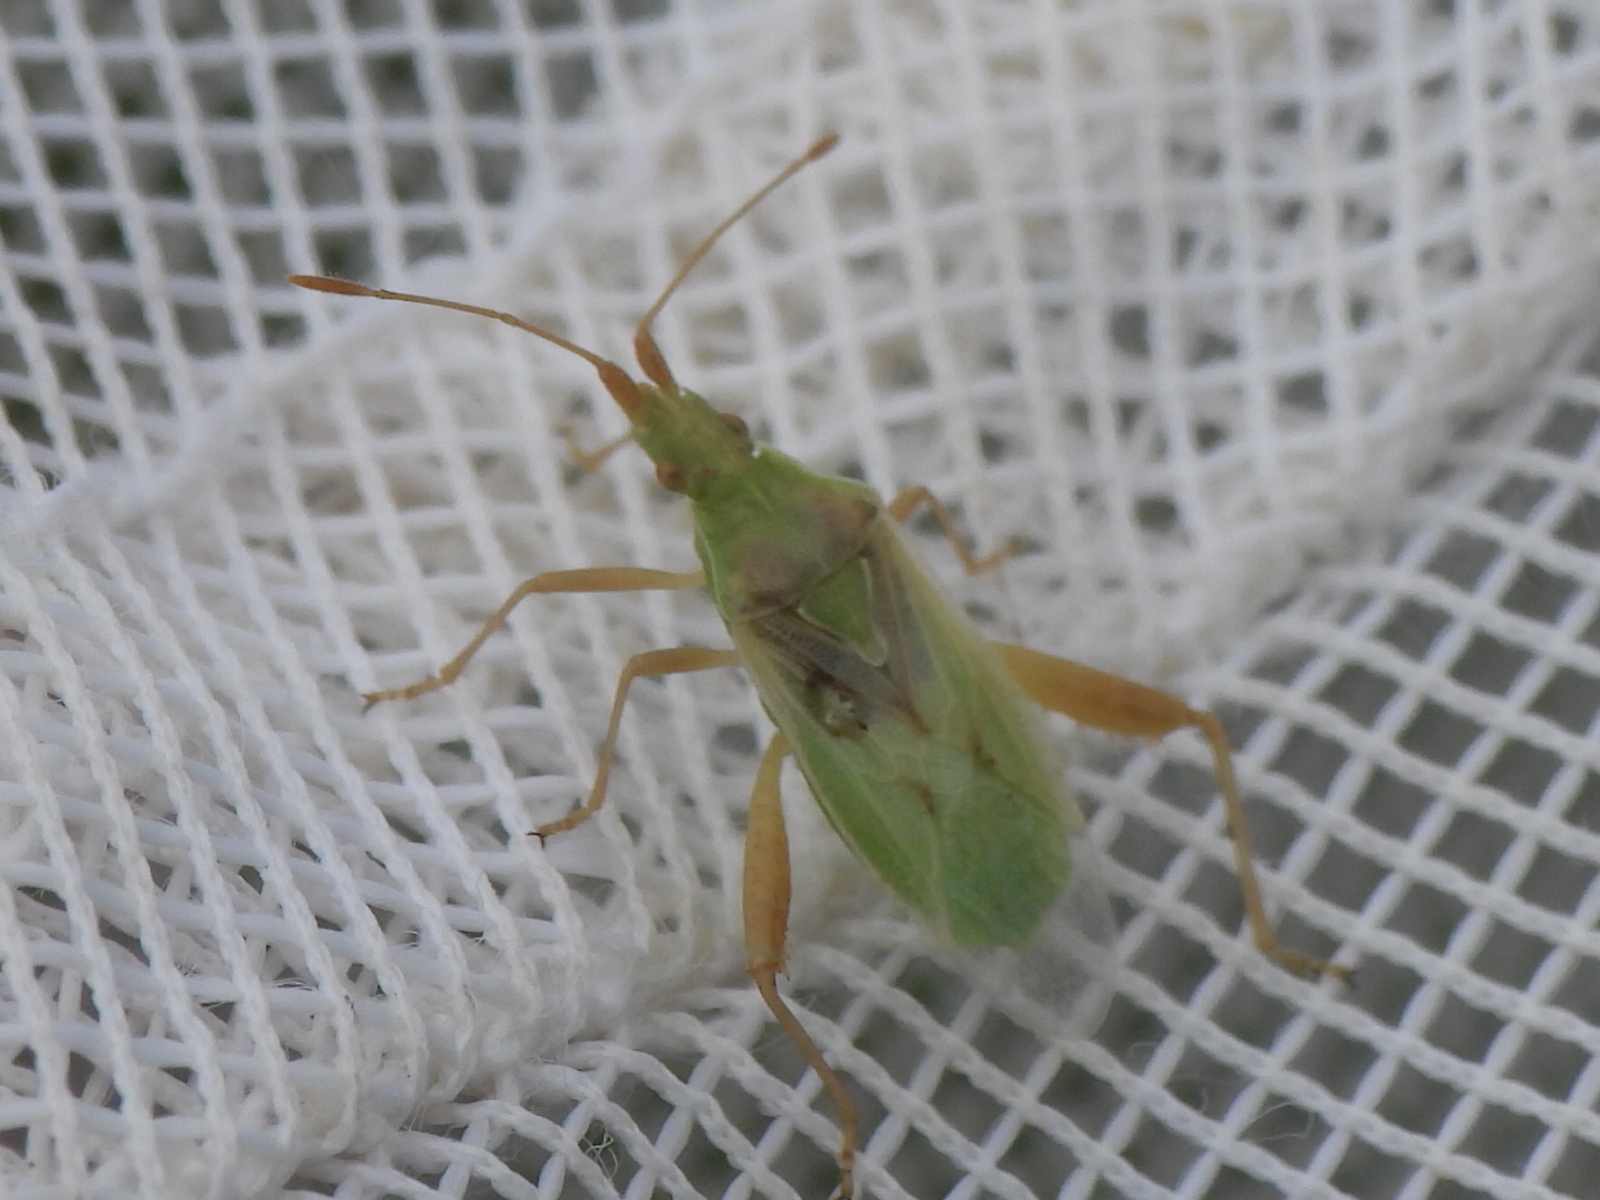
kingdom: Animalia
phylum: Arthropoda
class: Insecta
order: Hemiptera
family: Rhopalidae
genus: Harmostes
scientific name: Harmostes reflexulus
